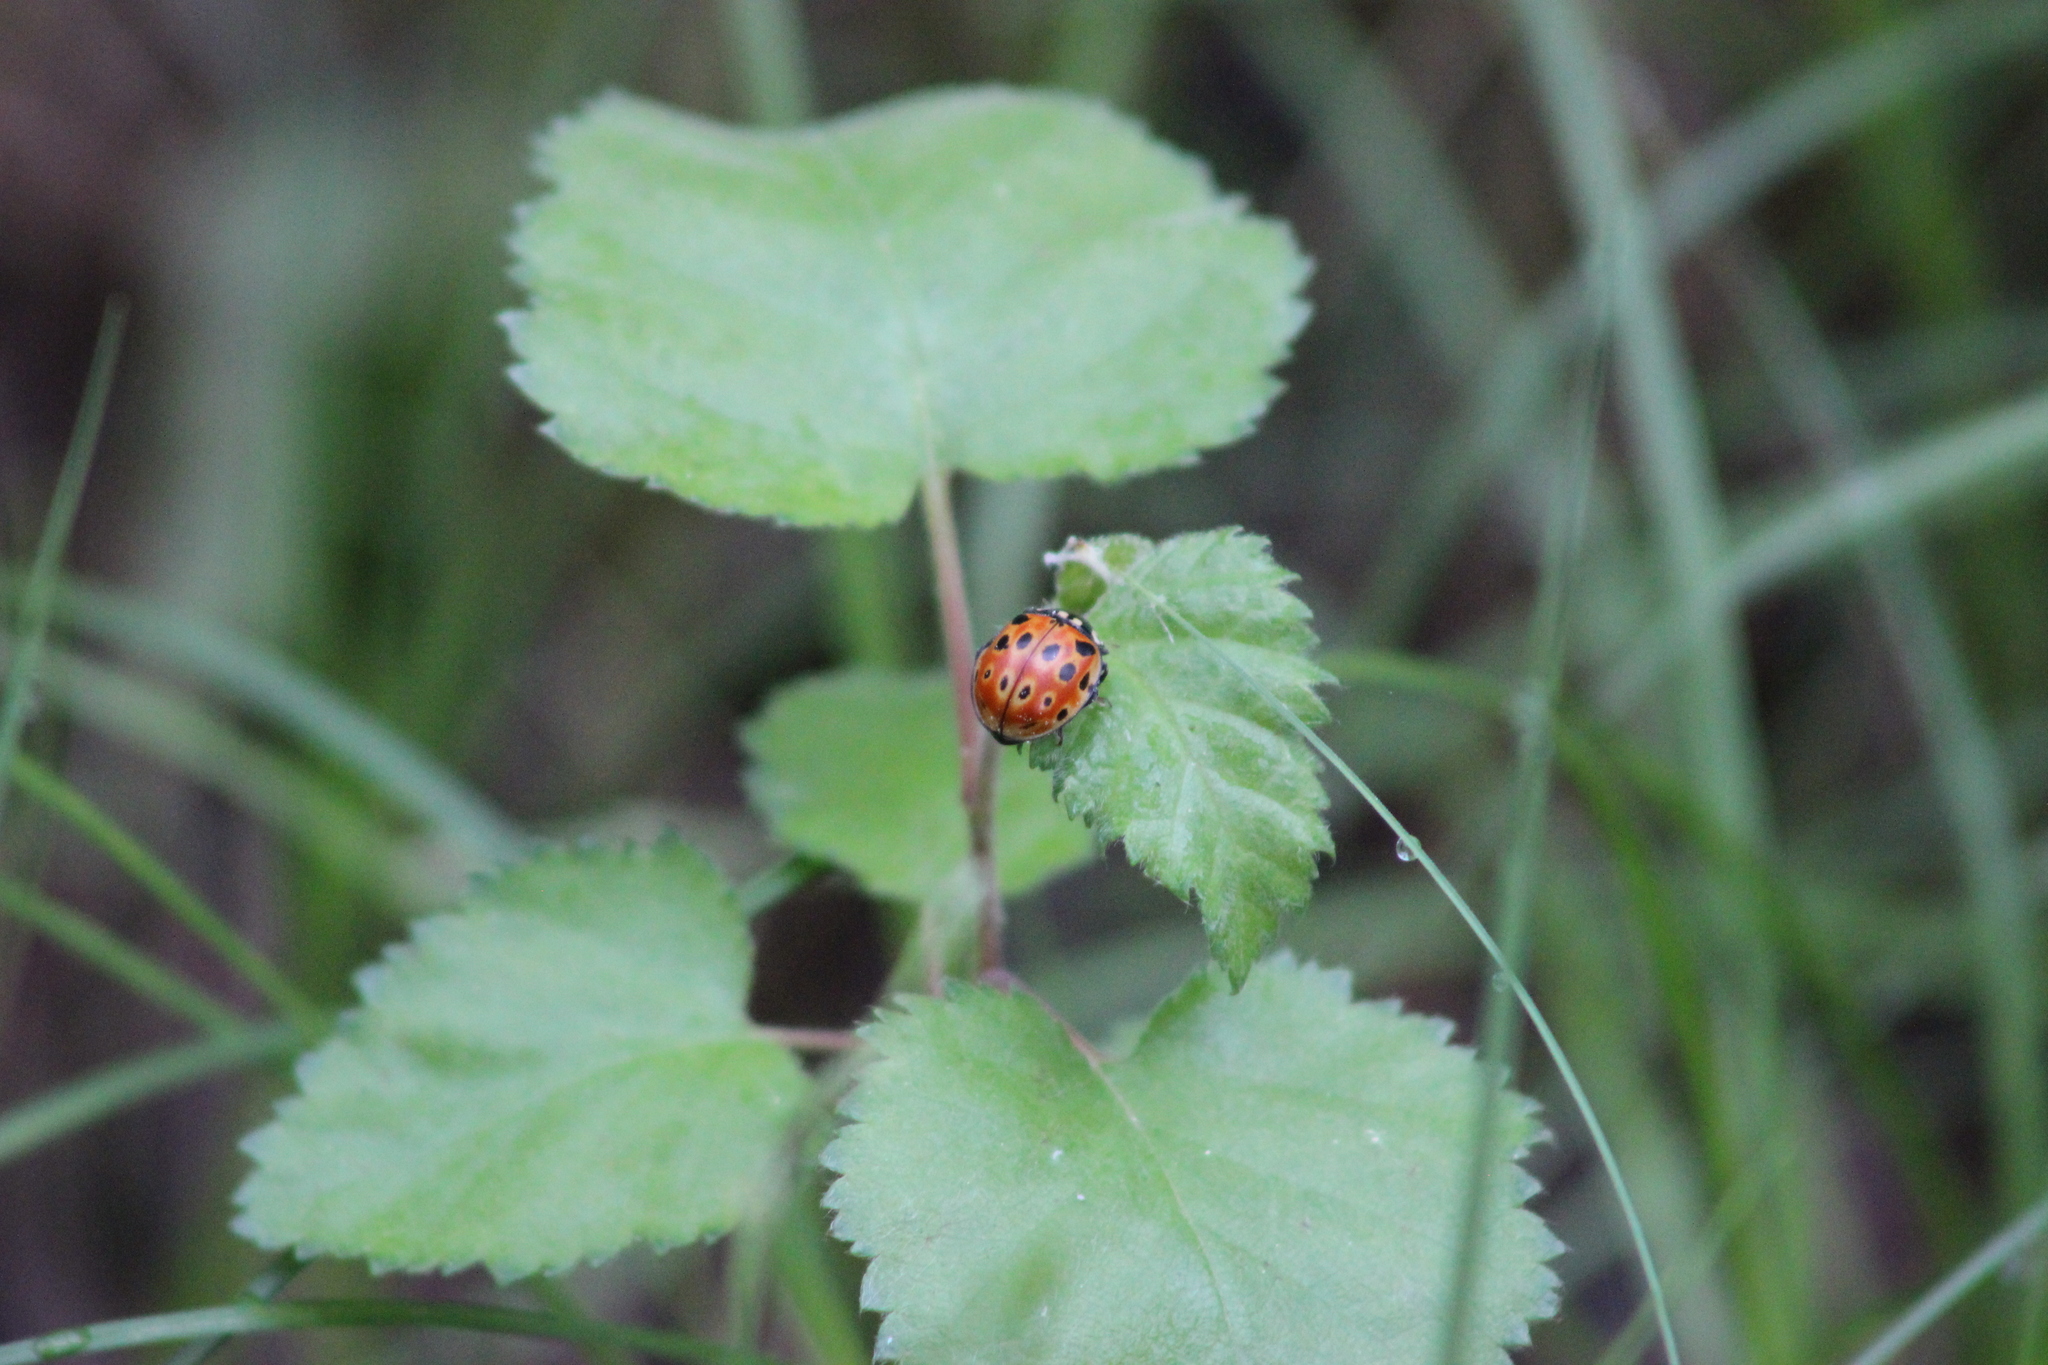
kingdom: Animalia
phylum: Arthropoda
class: Insecta
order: Coleoptera
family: Coccinellidae
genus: Anatis
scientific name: Anatis ocellata
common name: Eyed ladybird
